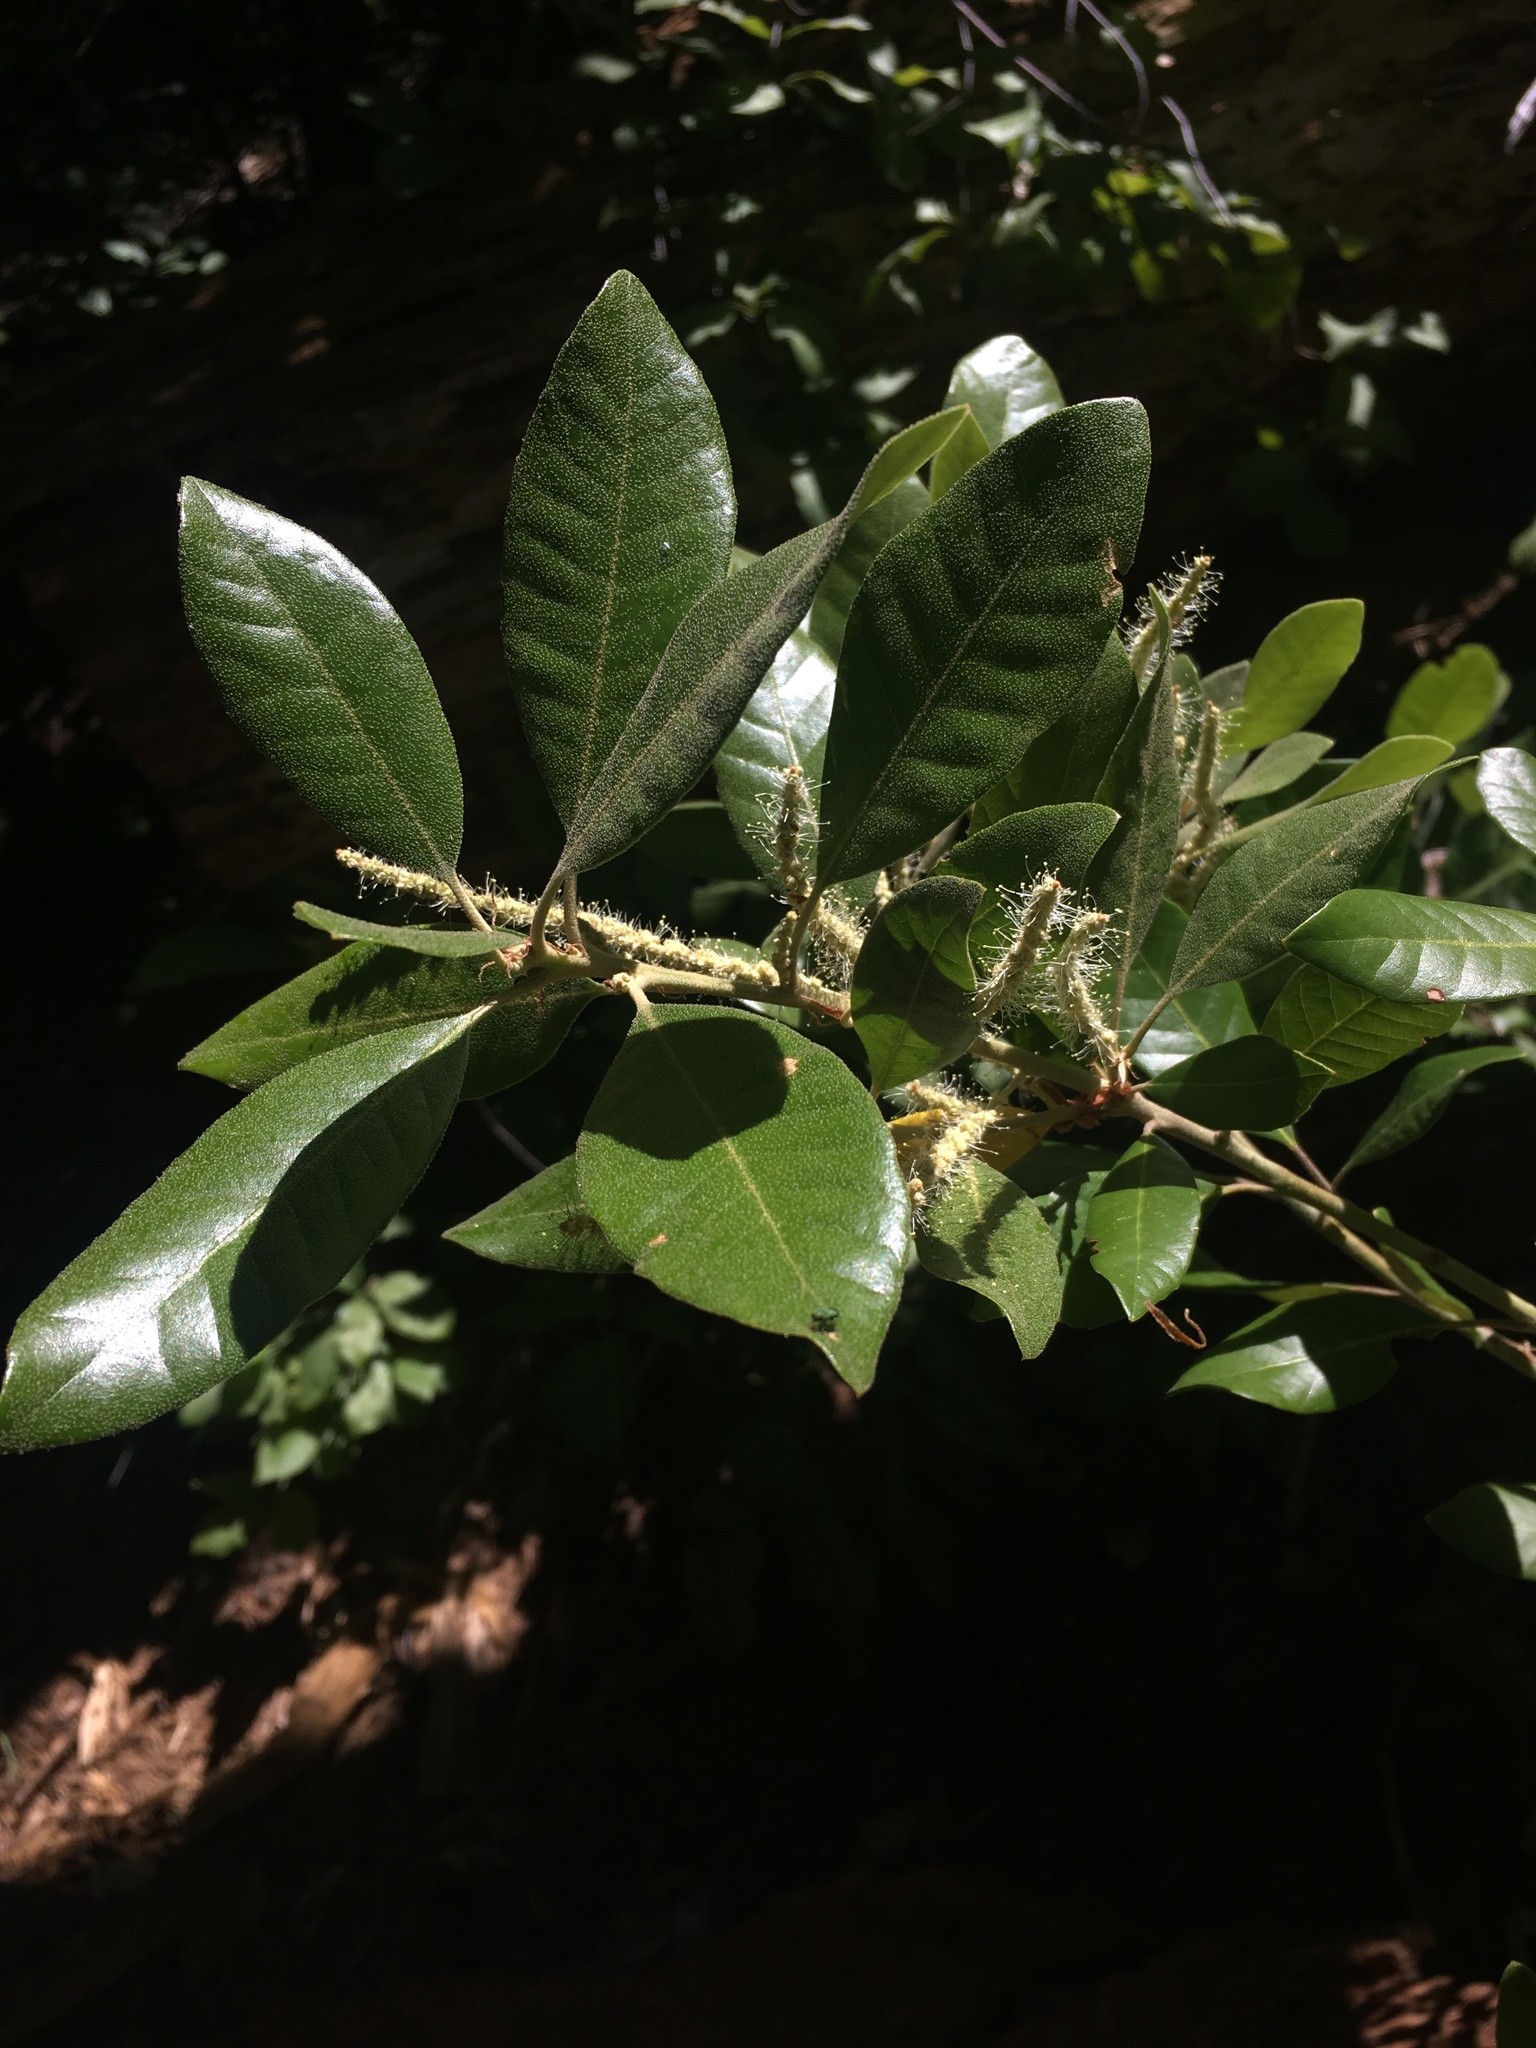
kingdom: Plantae
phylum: Tracheophyta
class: Magnoliopsida
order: Fagales
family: Fagaceae
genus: Notholithocarpus
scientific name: Notholithocarpus densiflorus
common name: Tan bark oak
